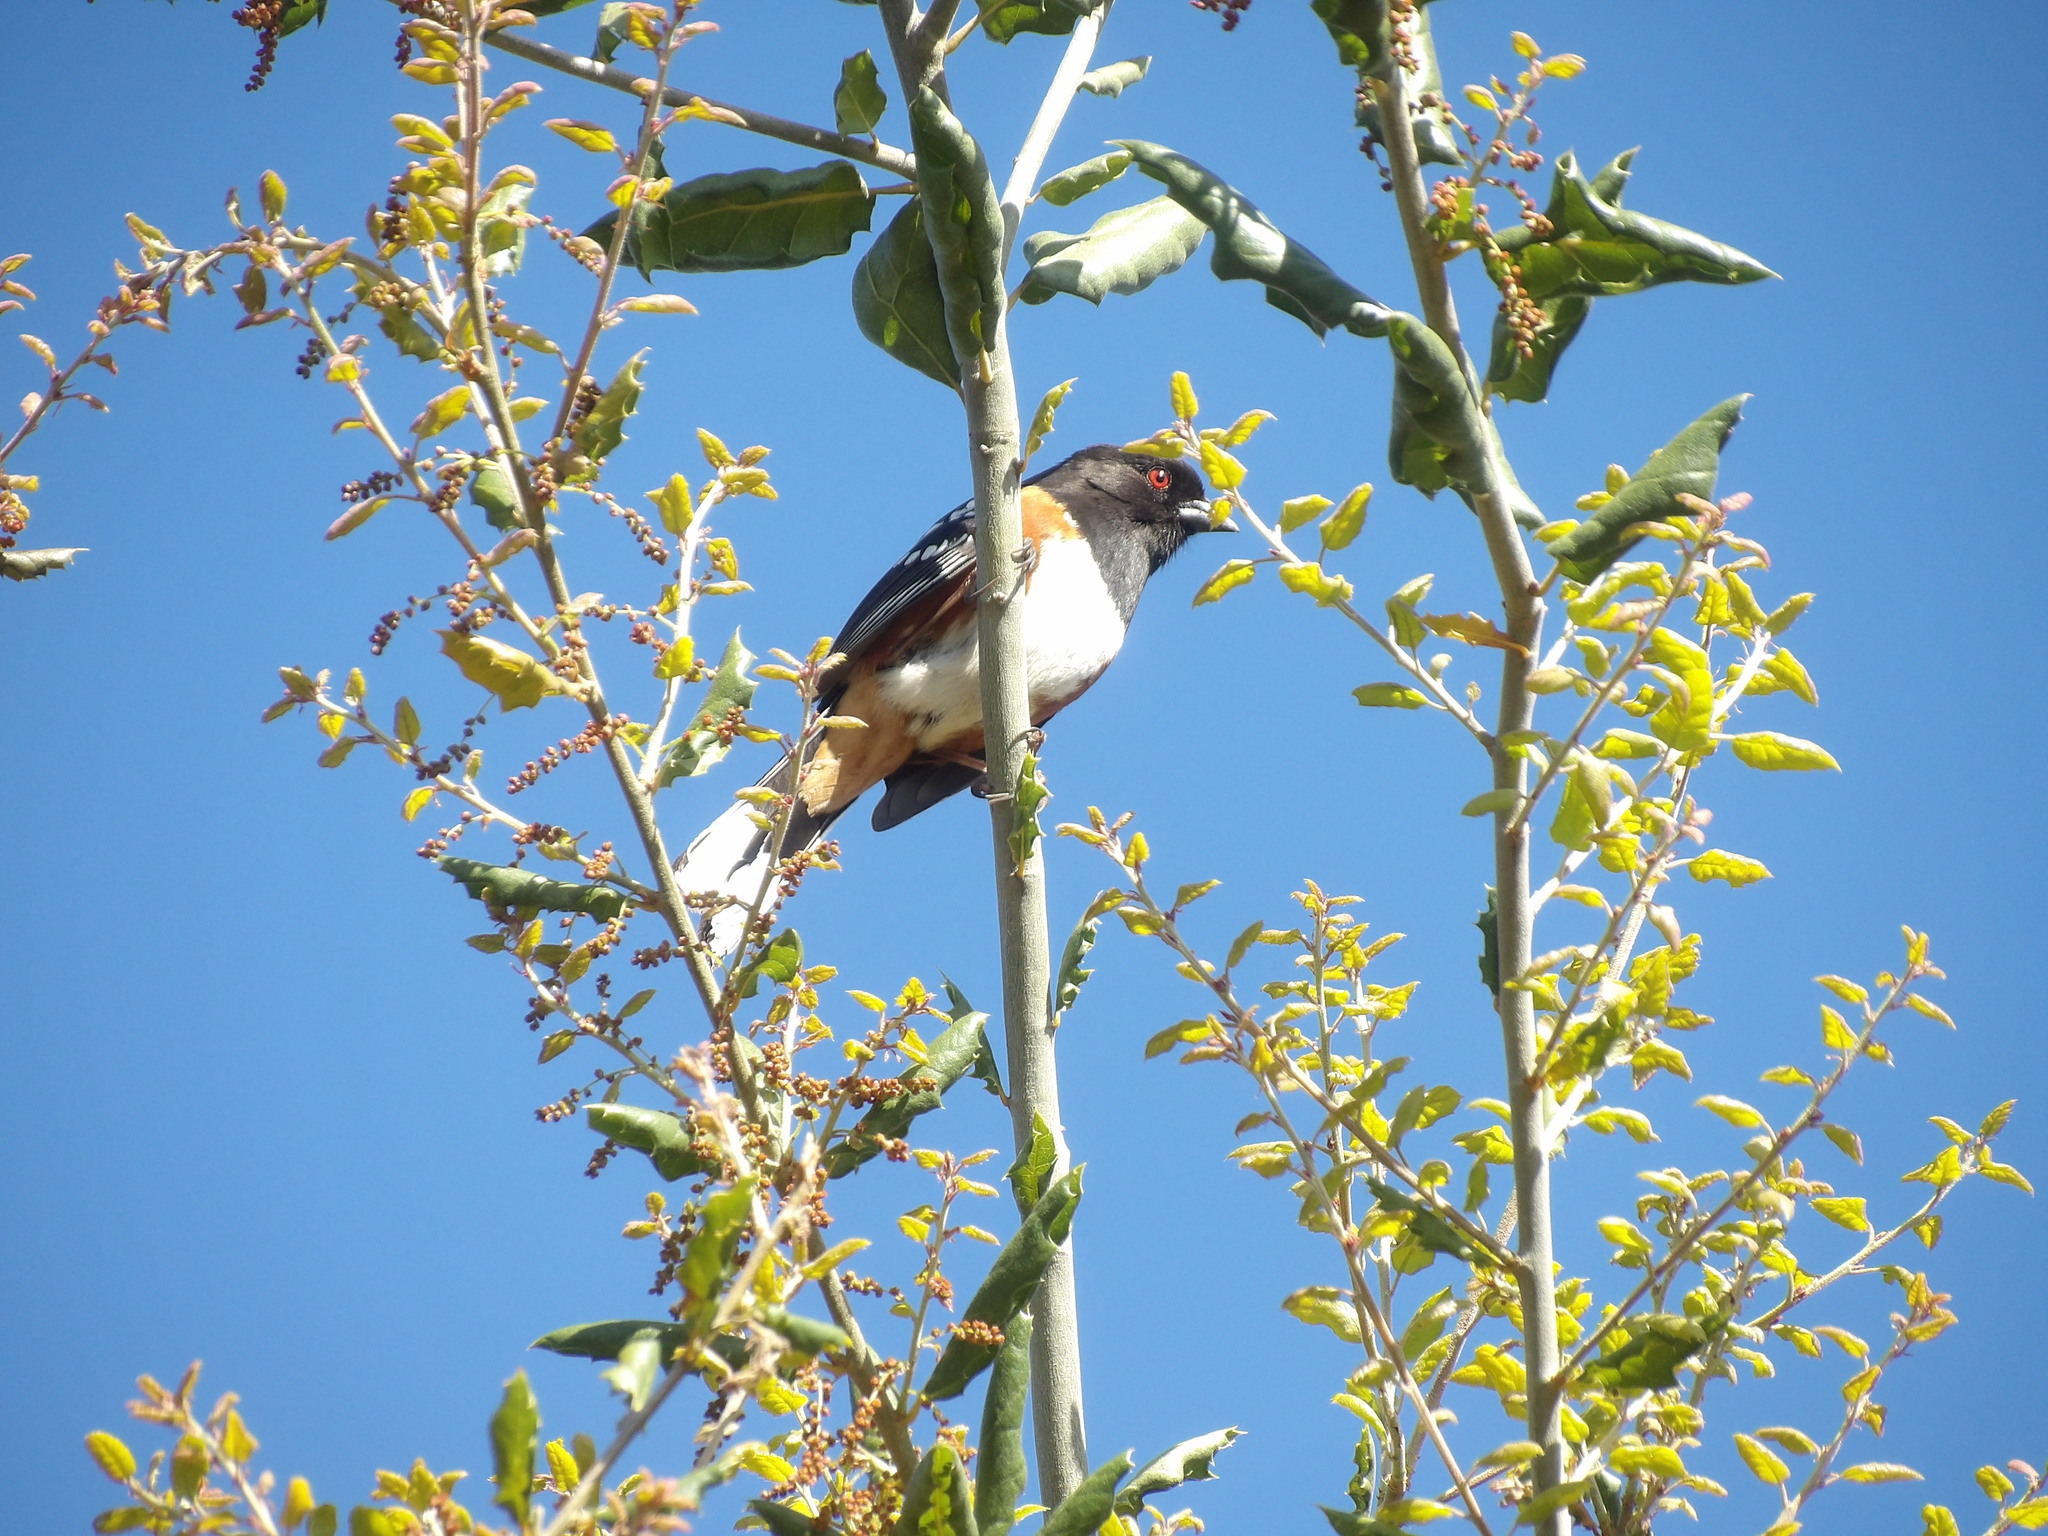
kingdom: Animalia
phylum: Chordata
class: Aves
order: Passeriformes
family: Passerellidae
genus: Pipilo
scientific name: Pipilo maculatus
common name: Spotted towhee
